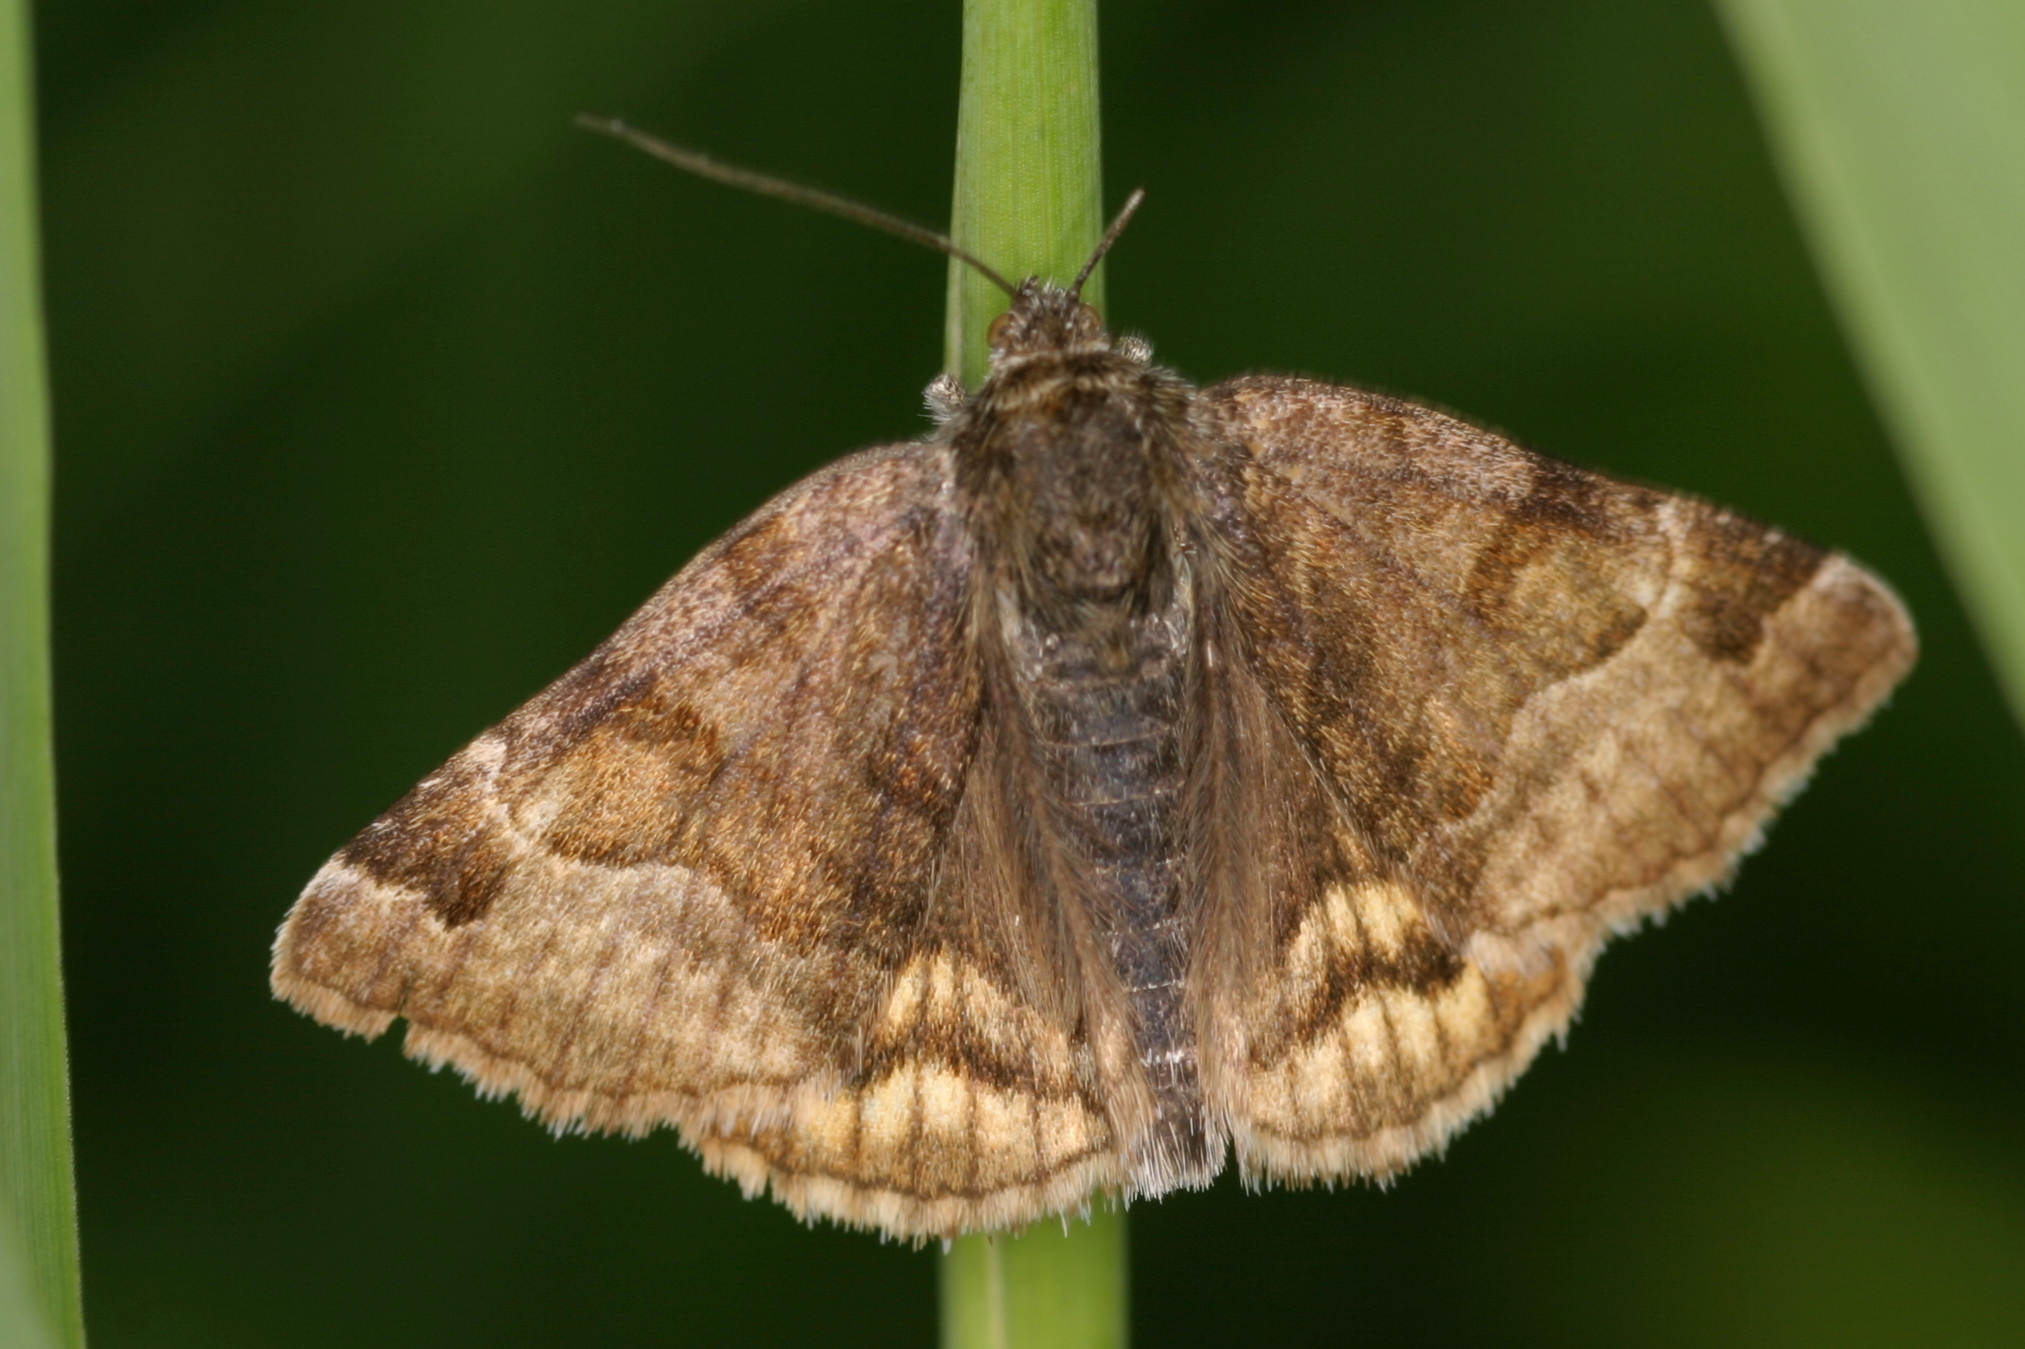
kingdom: Animalia
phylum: Arthropoda
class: Insecta
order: Lepidoptera
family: Erebidae
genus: Euclidia
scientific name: Euclidia glyphica
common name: Burnet companion
